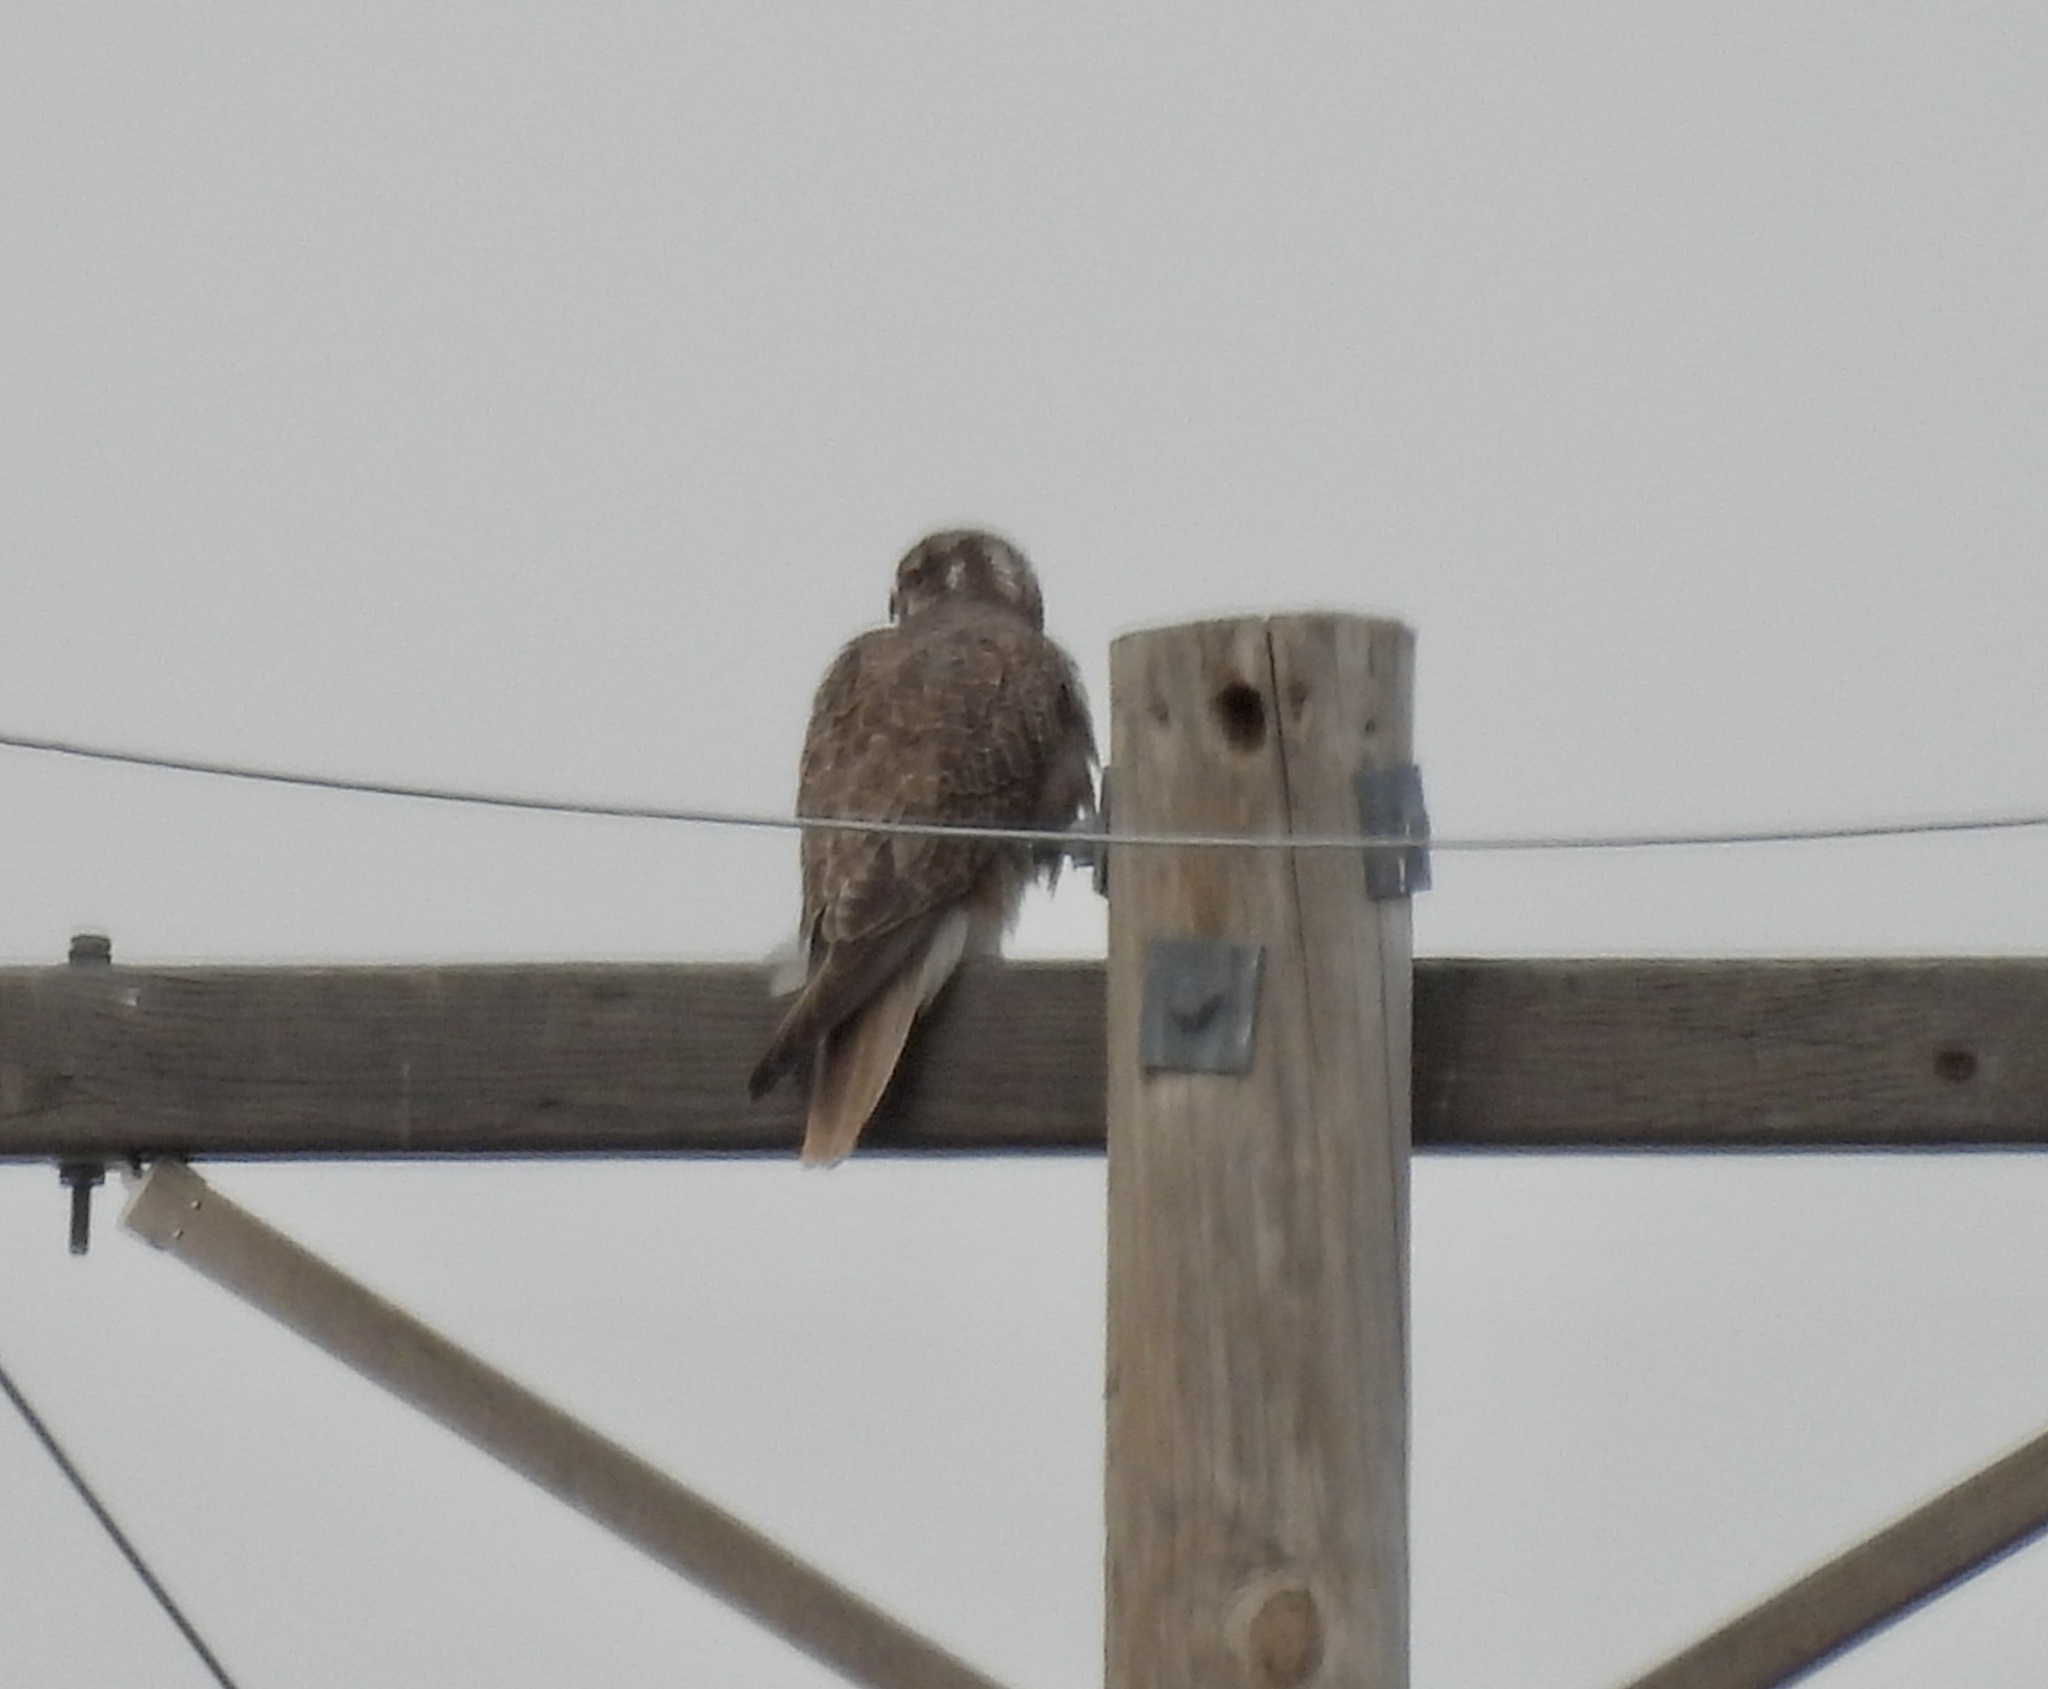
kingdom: Animalia
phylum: Chordata
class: Aves
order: Falconiformes
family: Falconidae
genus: Falco
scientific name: Falco mexicanus
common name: Prairie falcon
